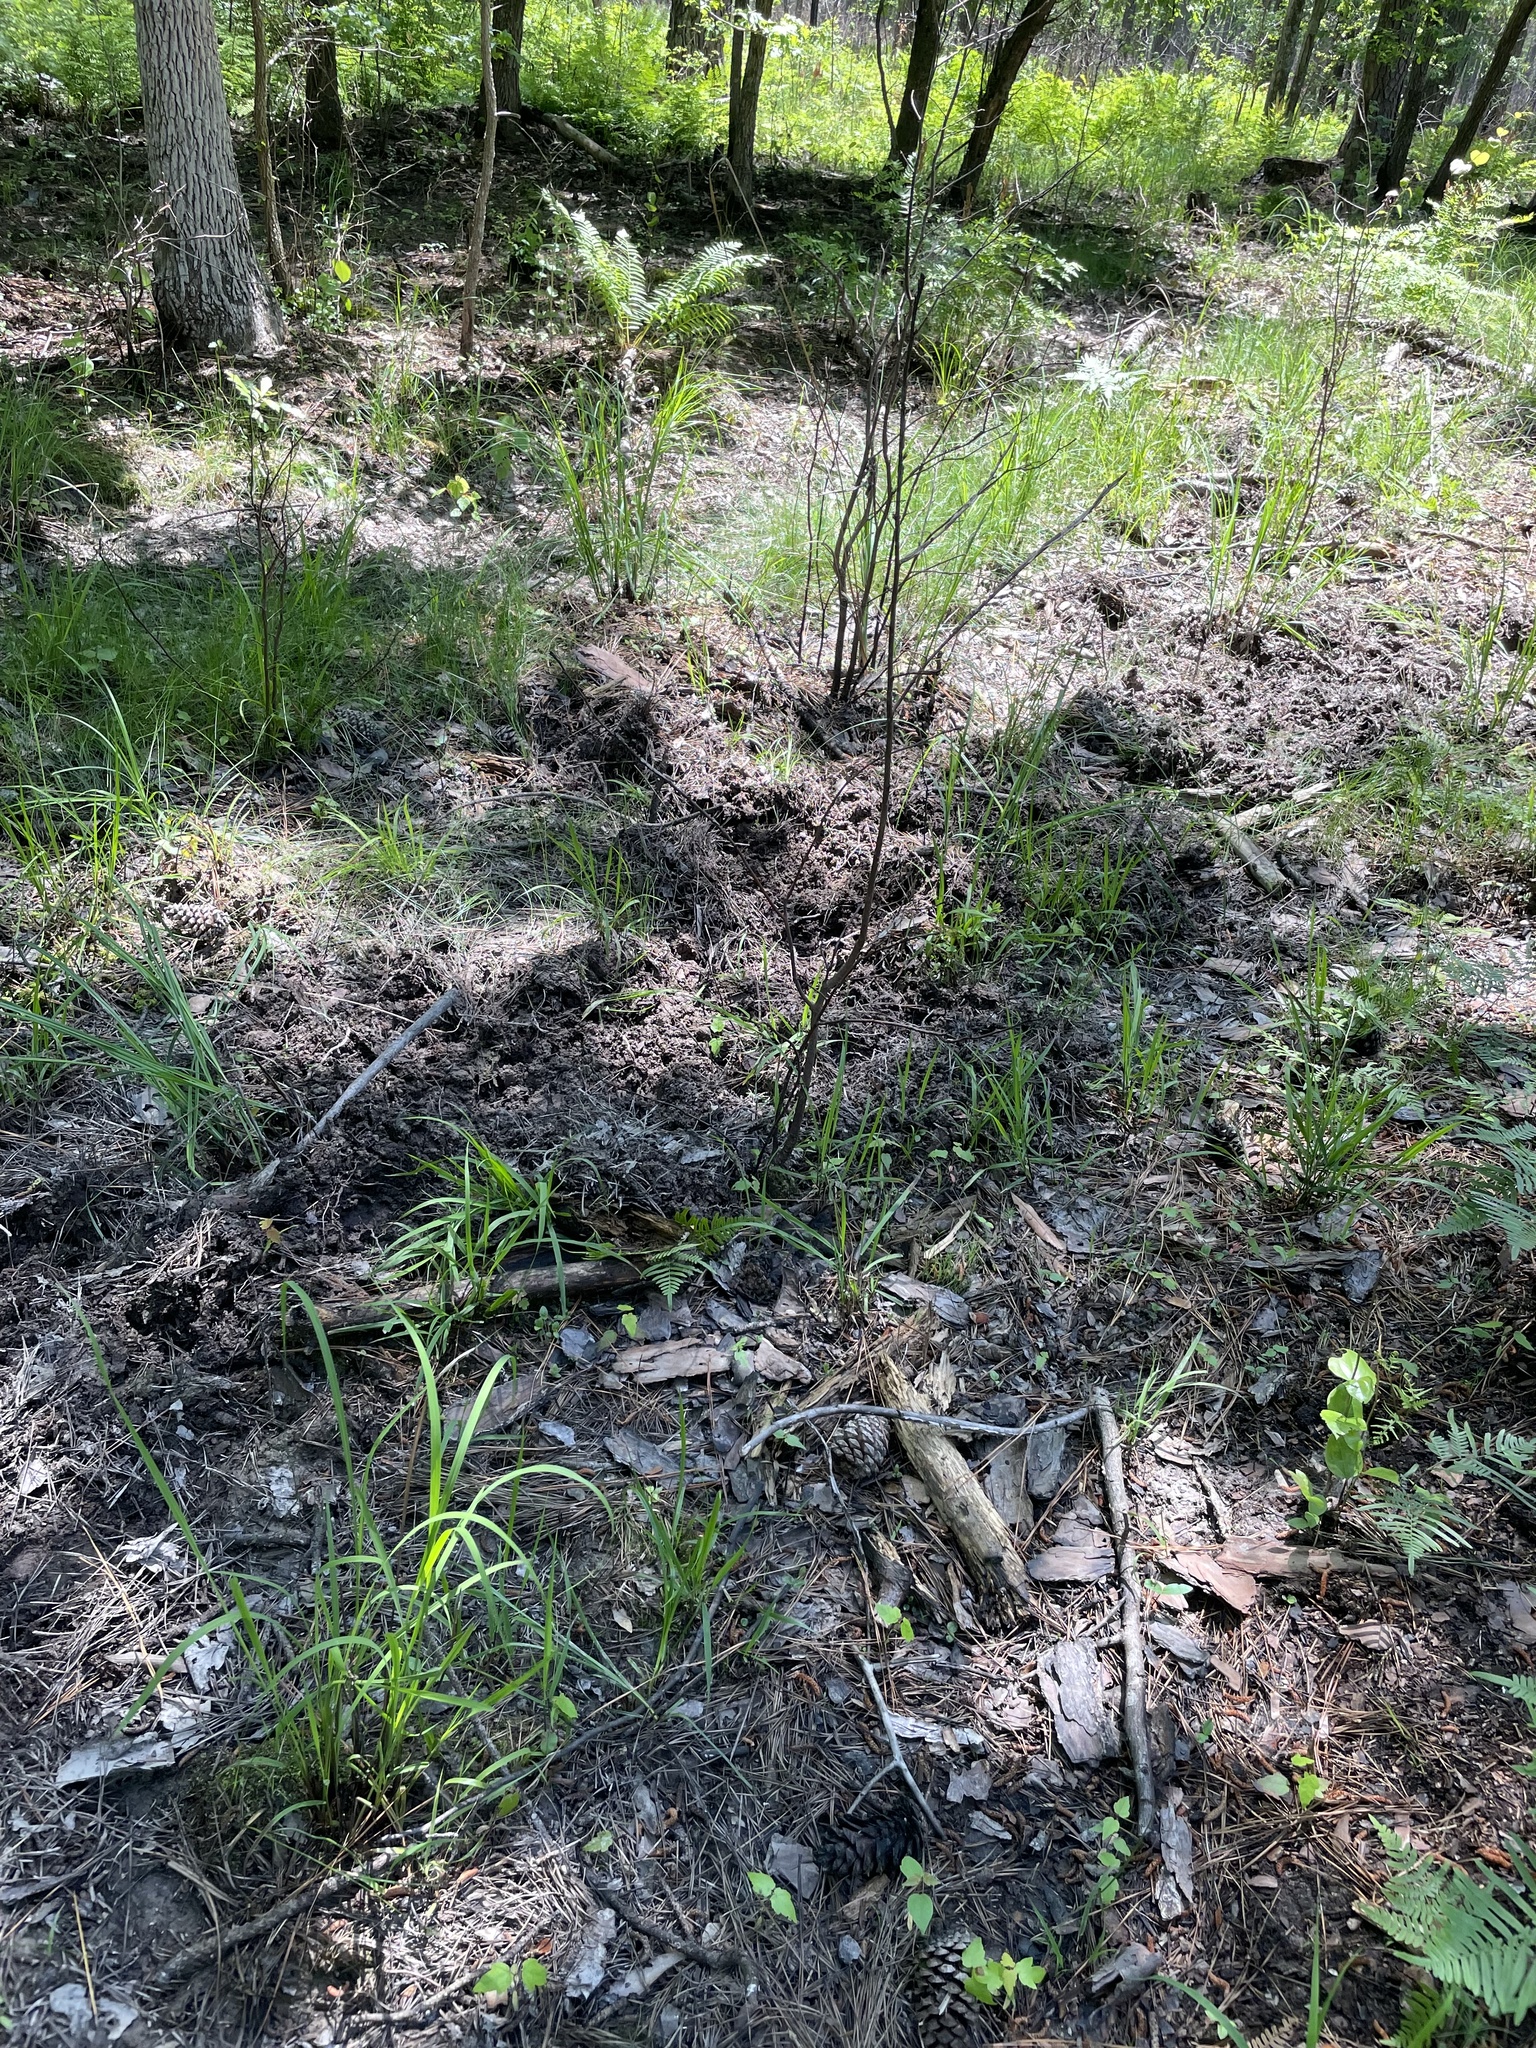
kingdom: Animalia
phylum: Chordata
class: Mammalia
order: Artiodactyla
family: Suidae
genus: Sus
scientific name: Sus scrofa
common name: Wild boar
